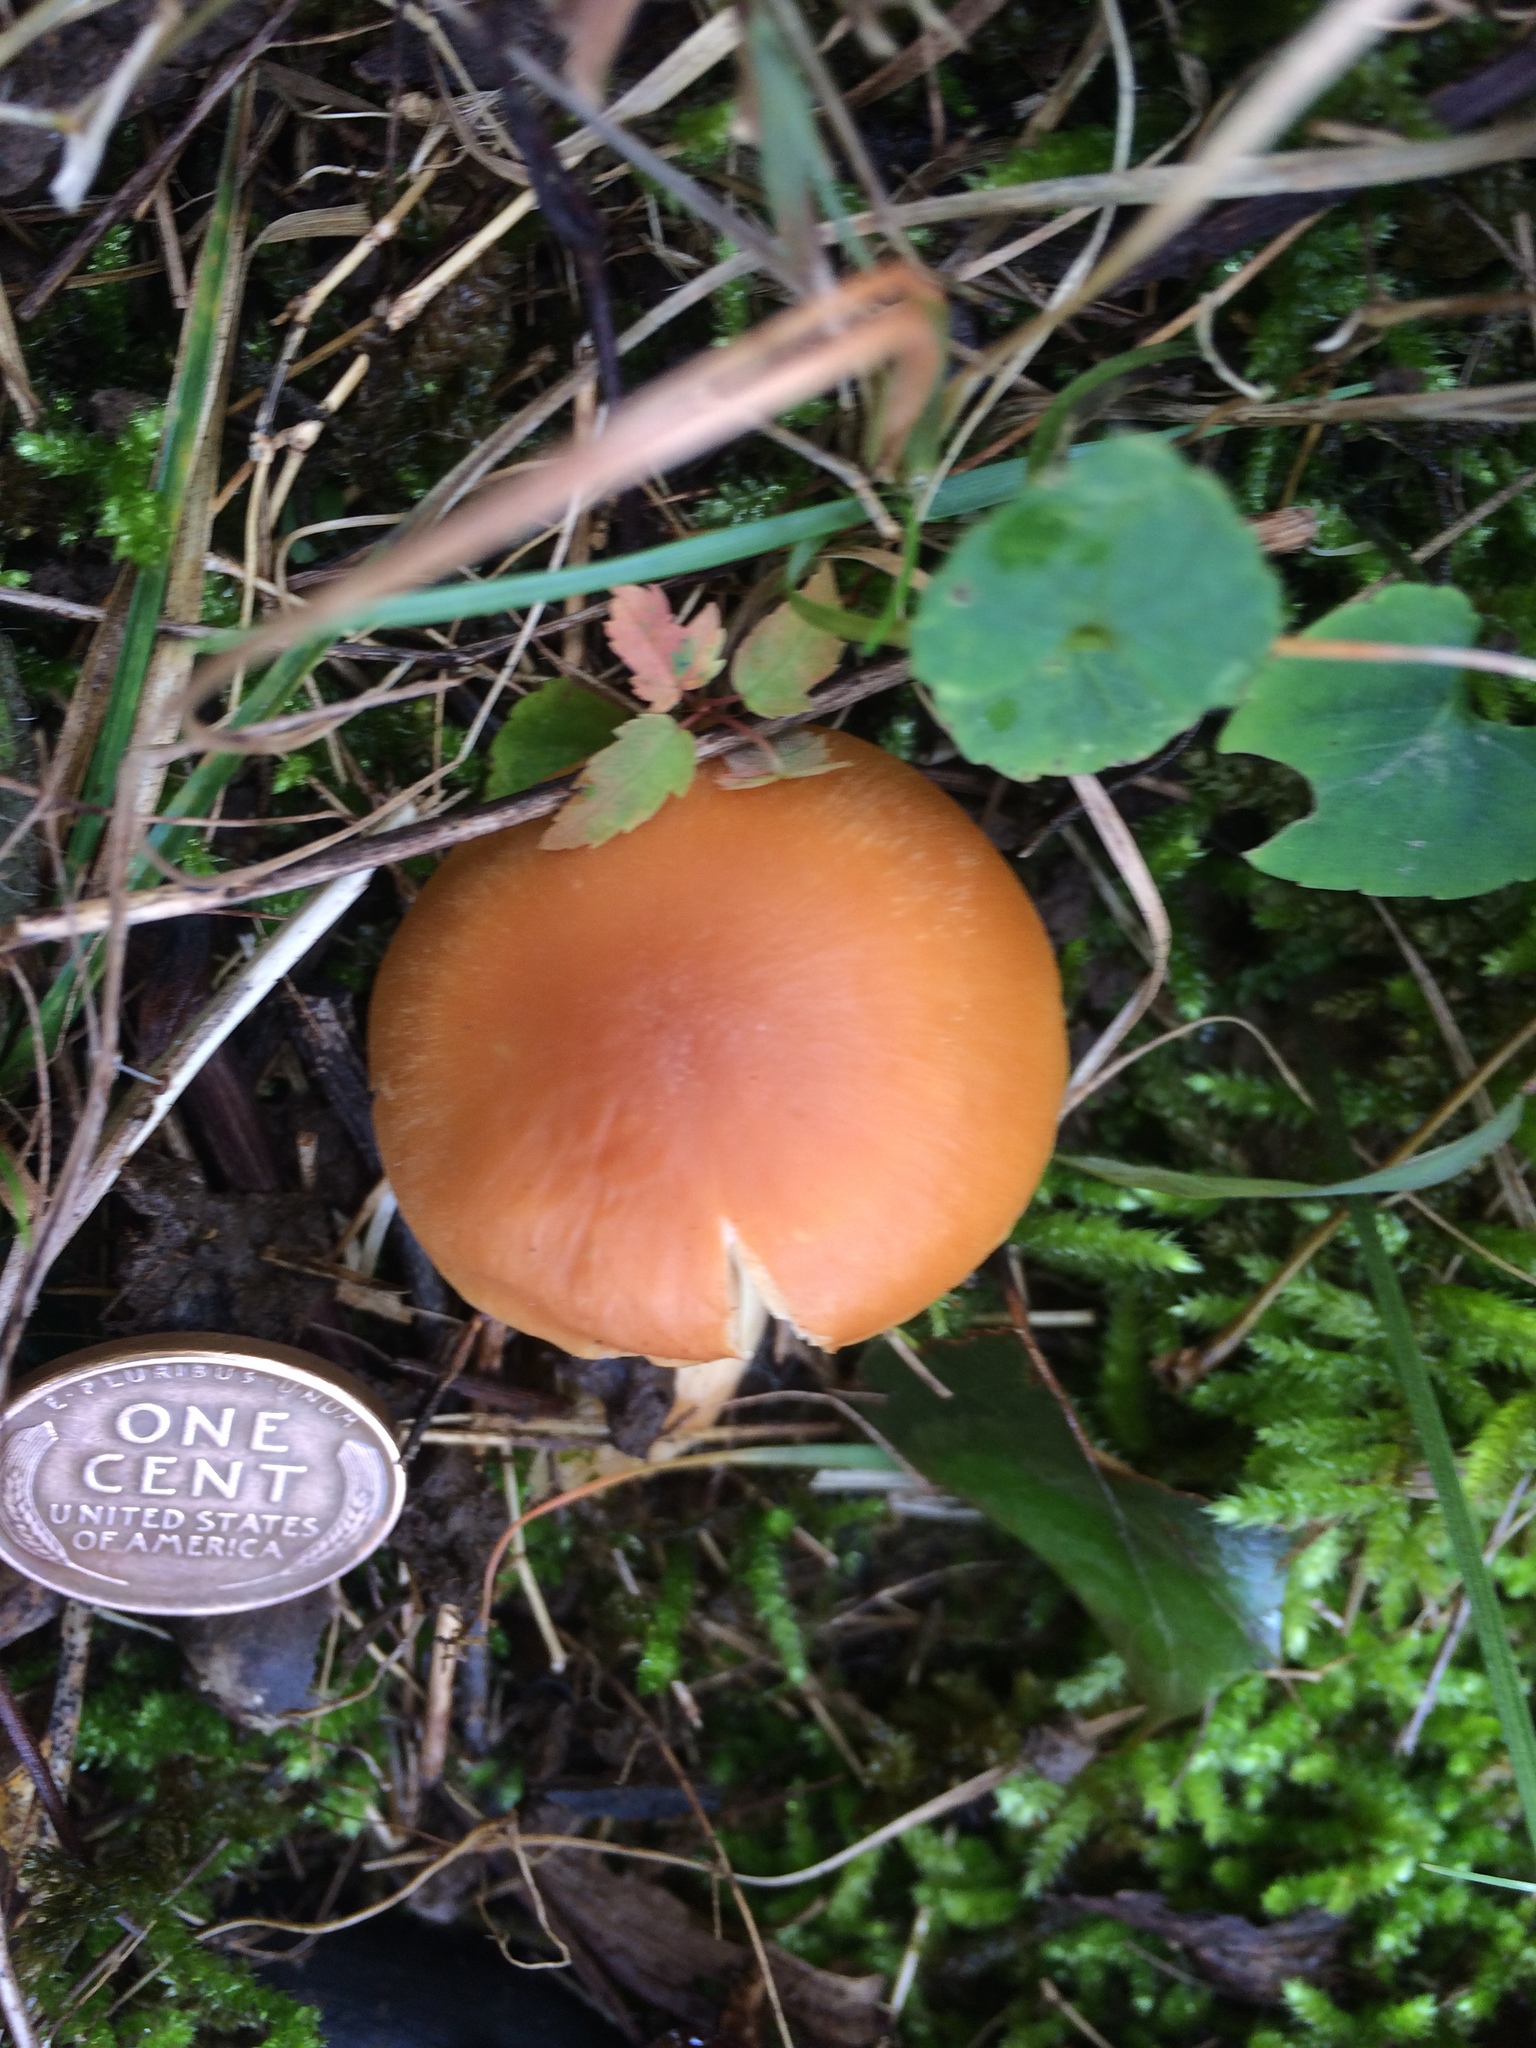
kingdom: Fungi
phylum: Basidiomycota
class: Agaricomycetes
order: Agaricales
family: Hygrophoraceae
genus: Cuphophyllus
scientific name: Cuphophyllus pratensis
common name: Meadow waxcap
